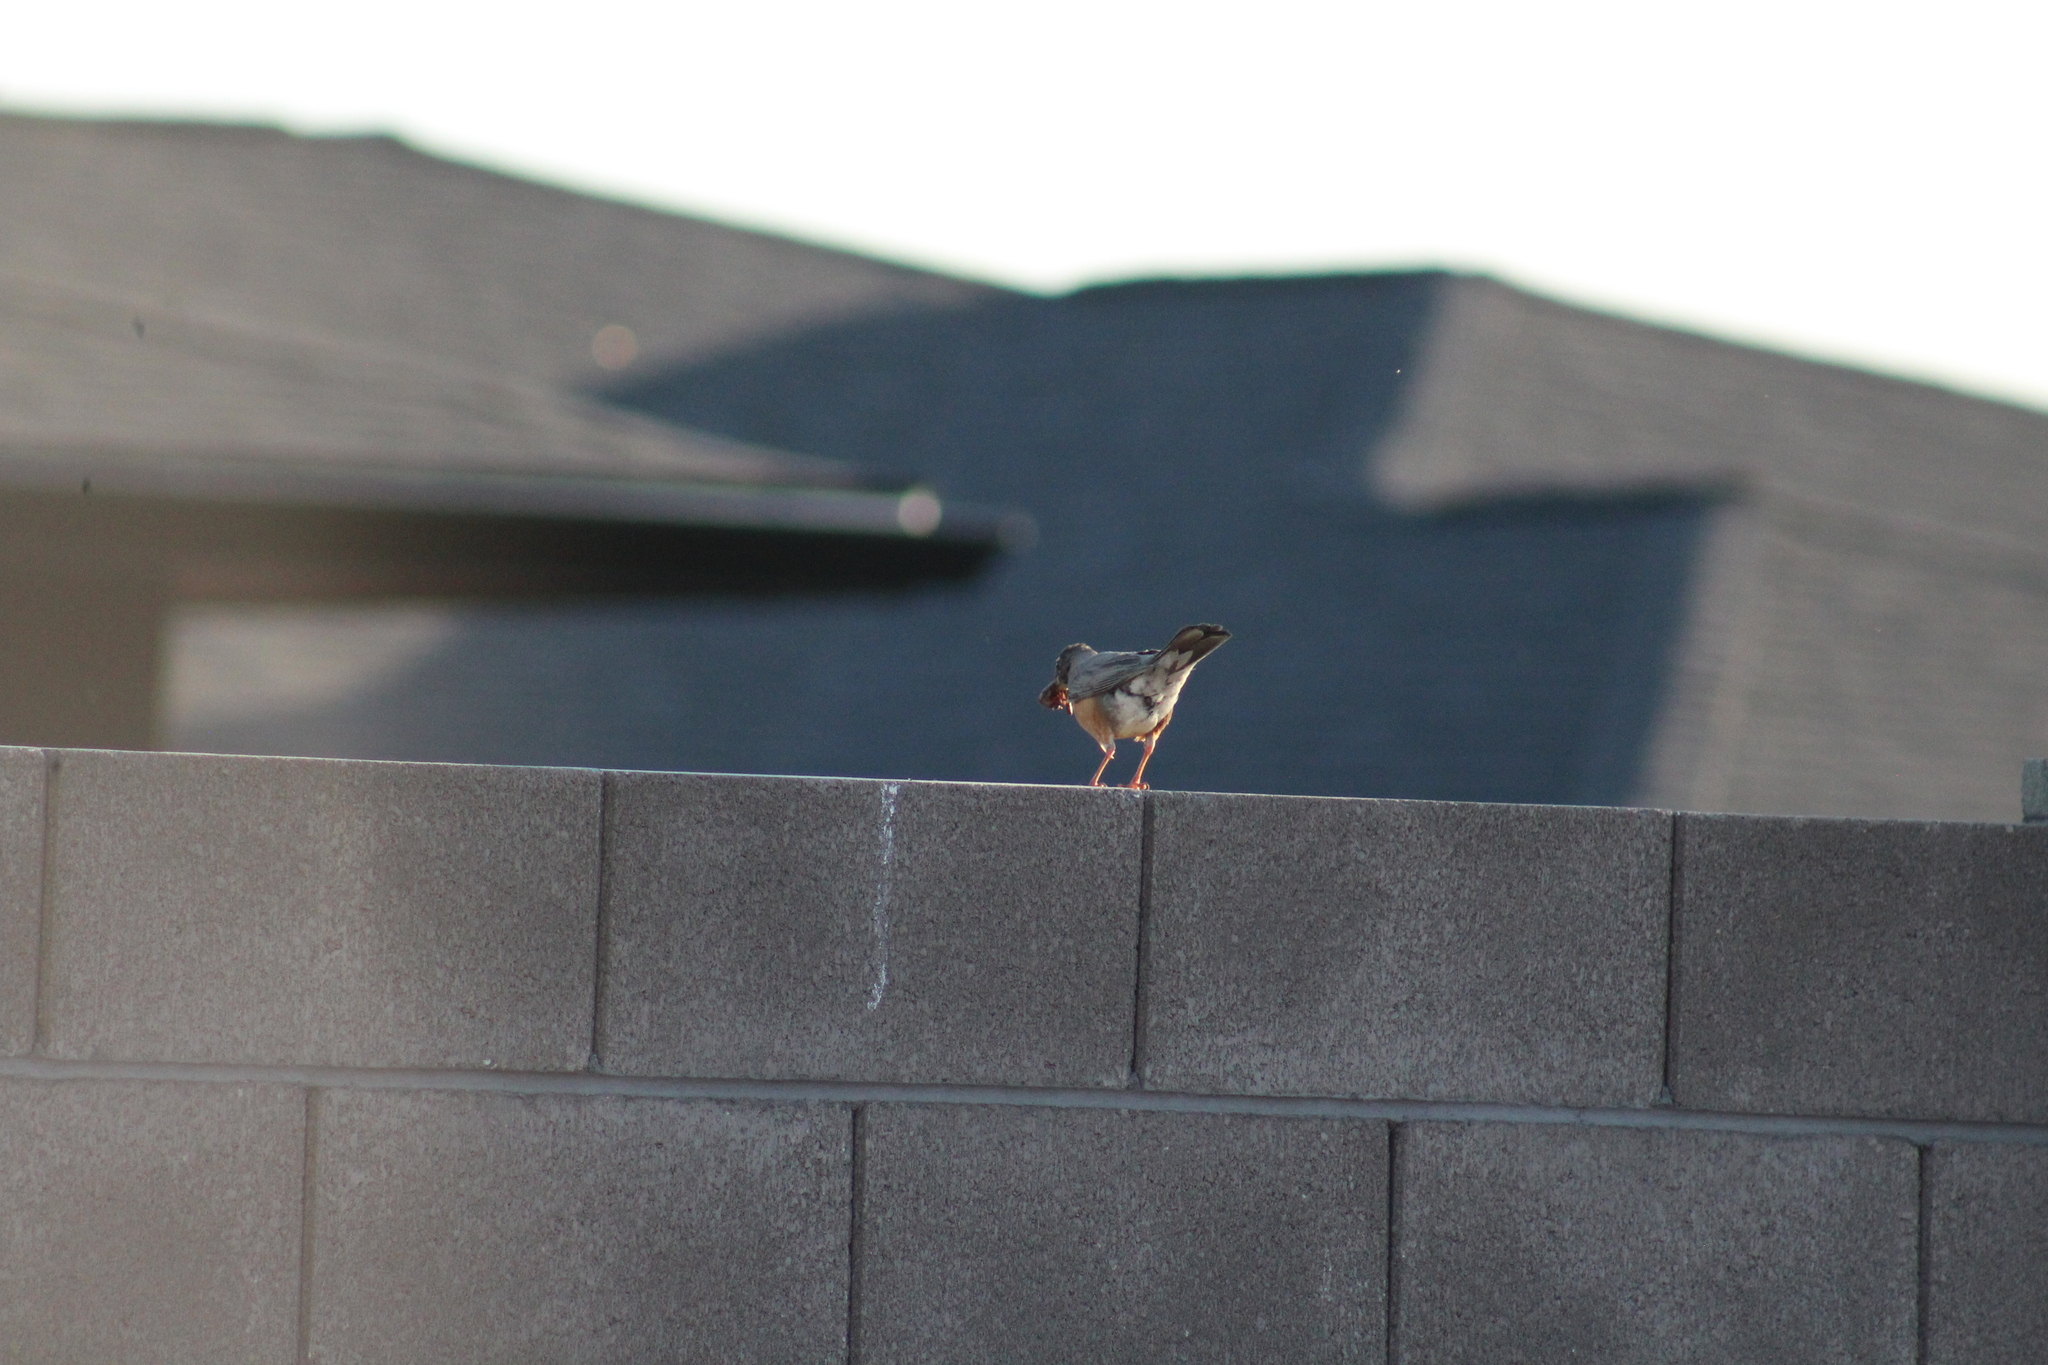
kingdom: Animalia
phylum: Chordata
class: Aves
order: Passeriformes
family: Turdidae
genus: Turdus
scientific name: Turdus migratorius
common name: American robin
